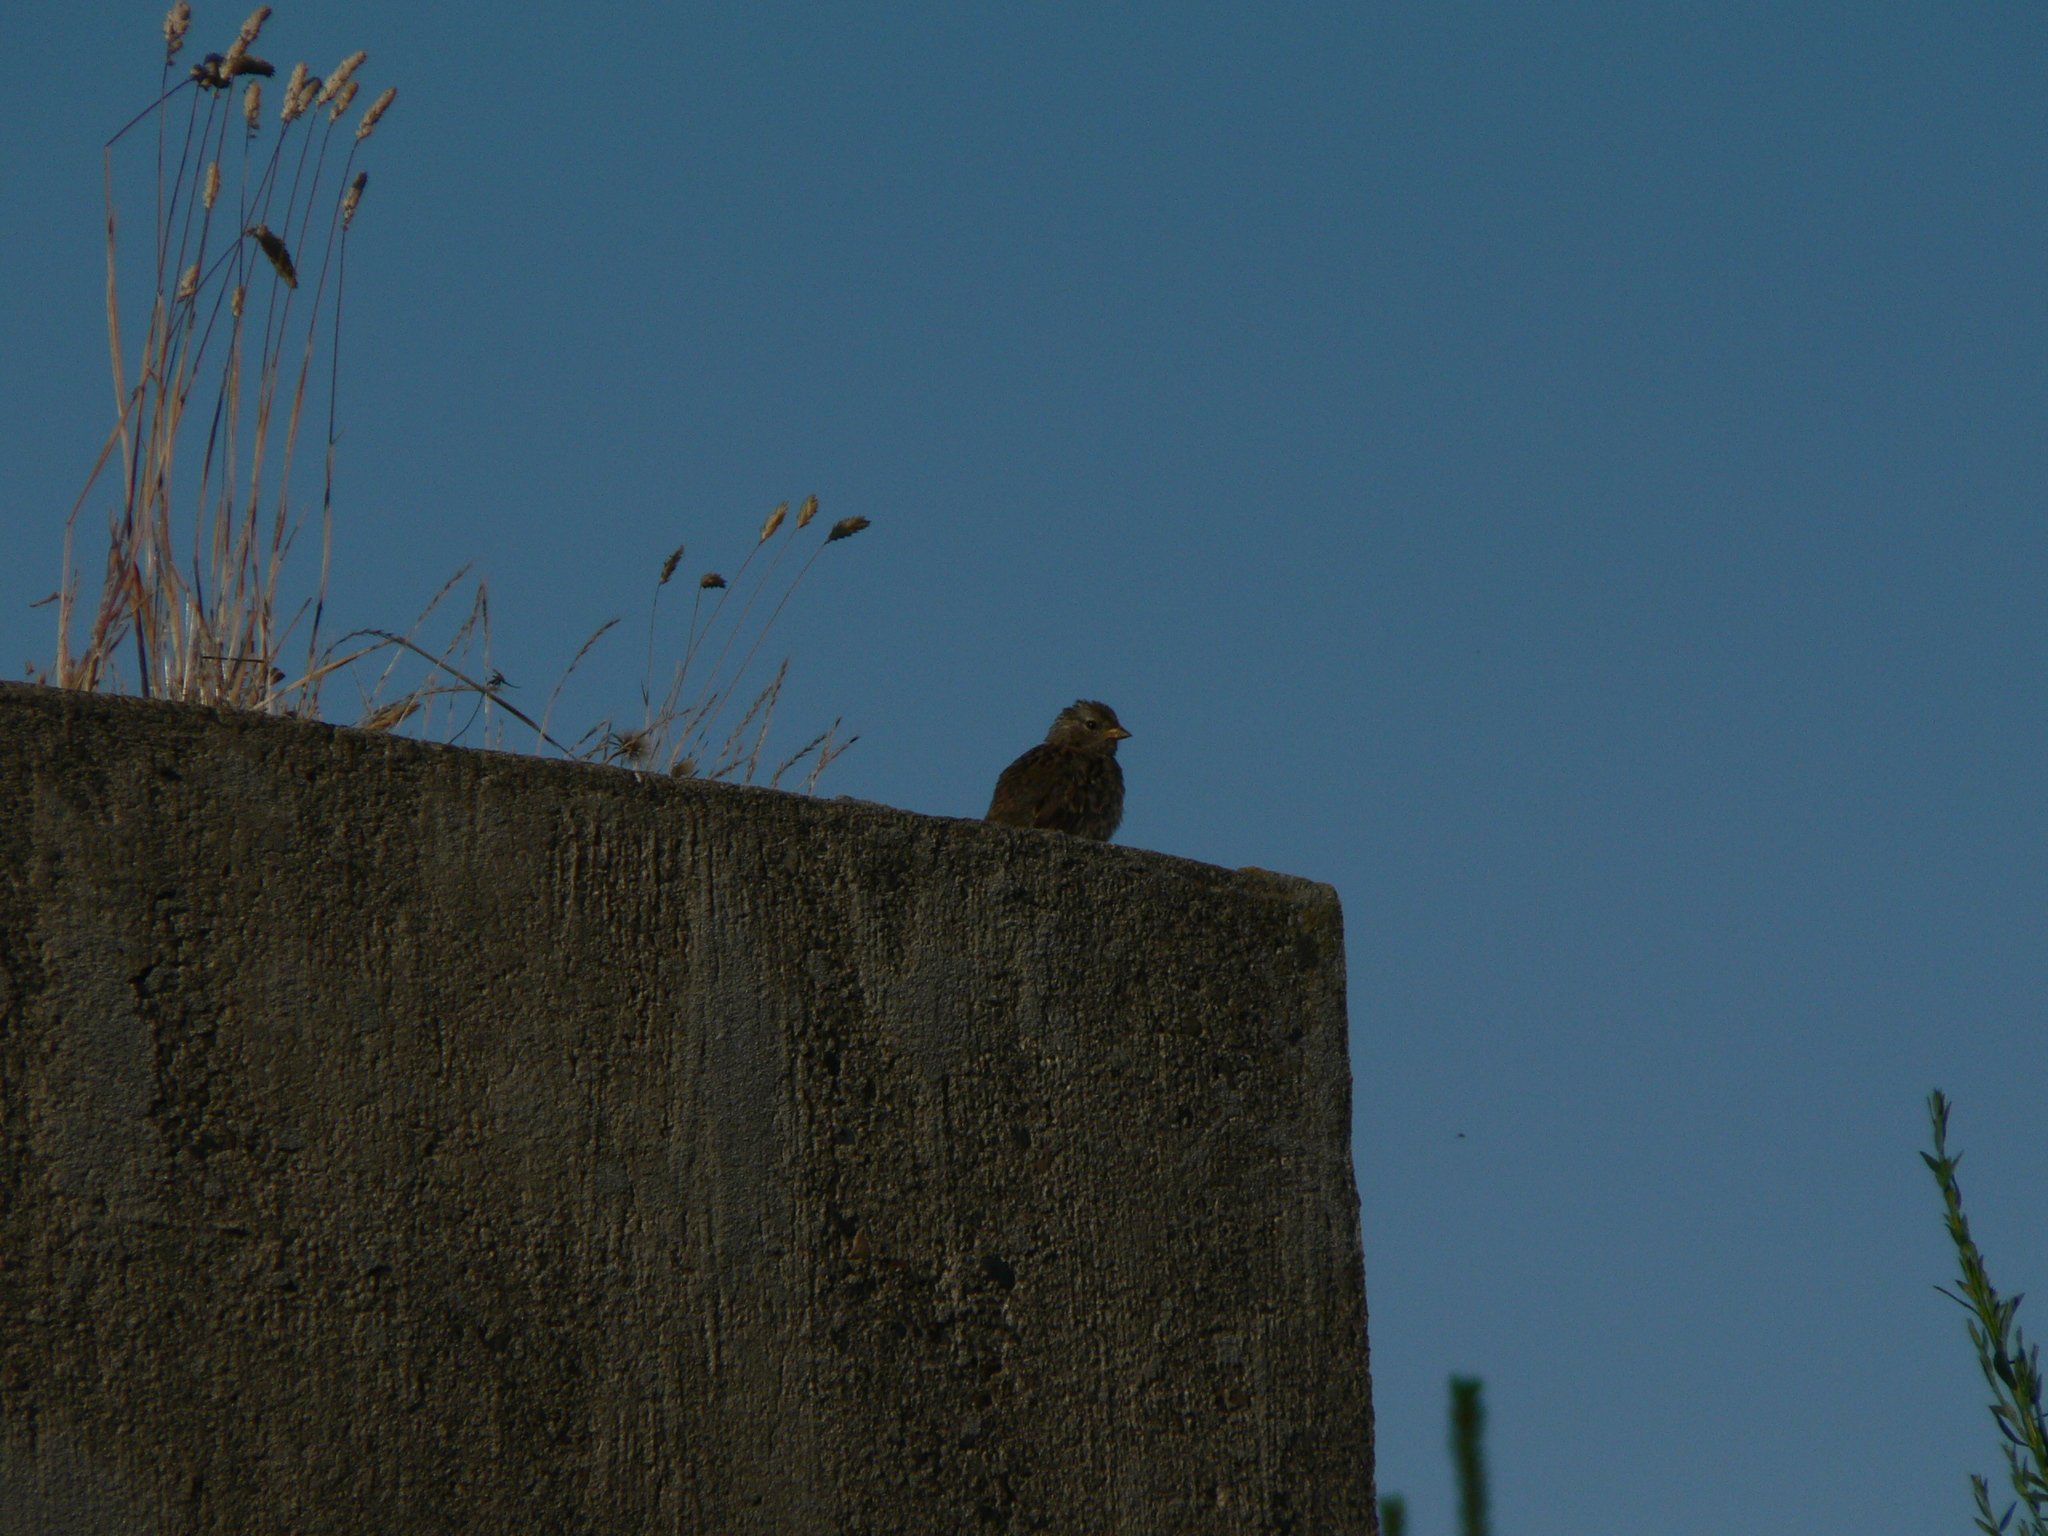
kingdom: Animalia
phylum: Chordata
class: Aves
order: Passeriformes
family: Passerellidae
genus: Zonotrichia
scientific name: Zonotrichia leucophrys
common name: White-crowned sparrow
